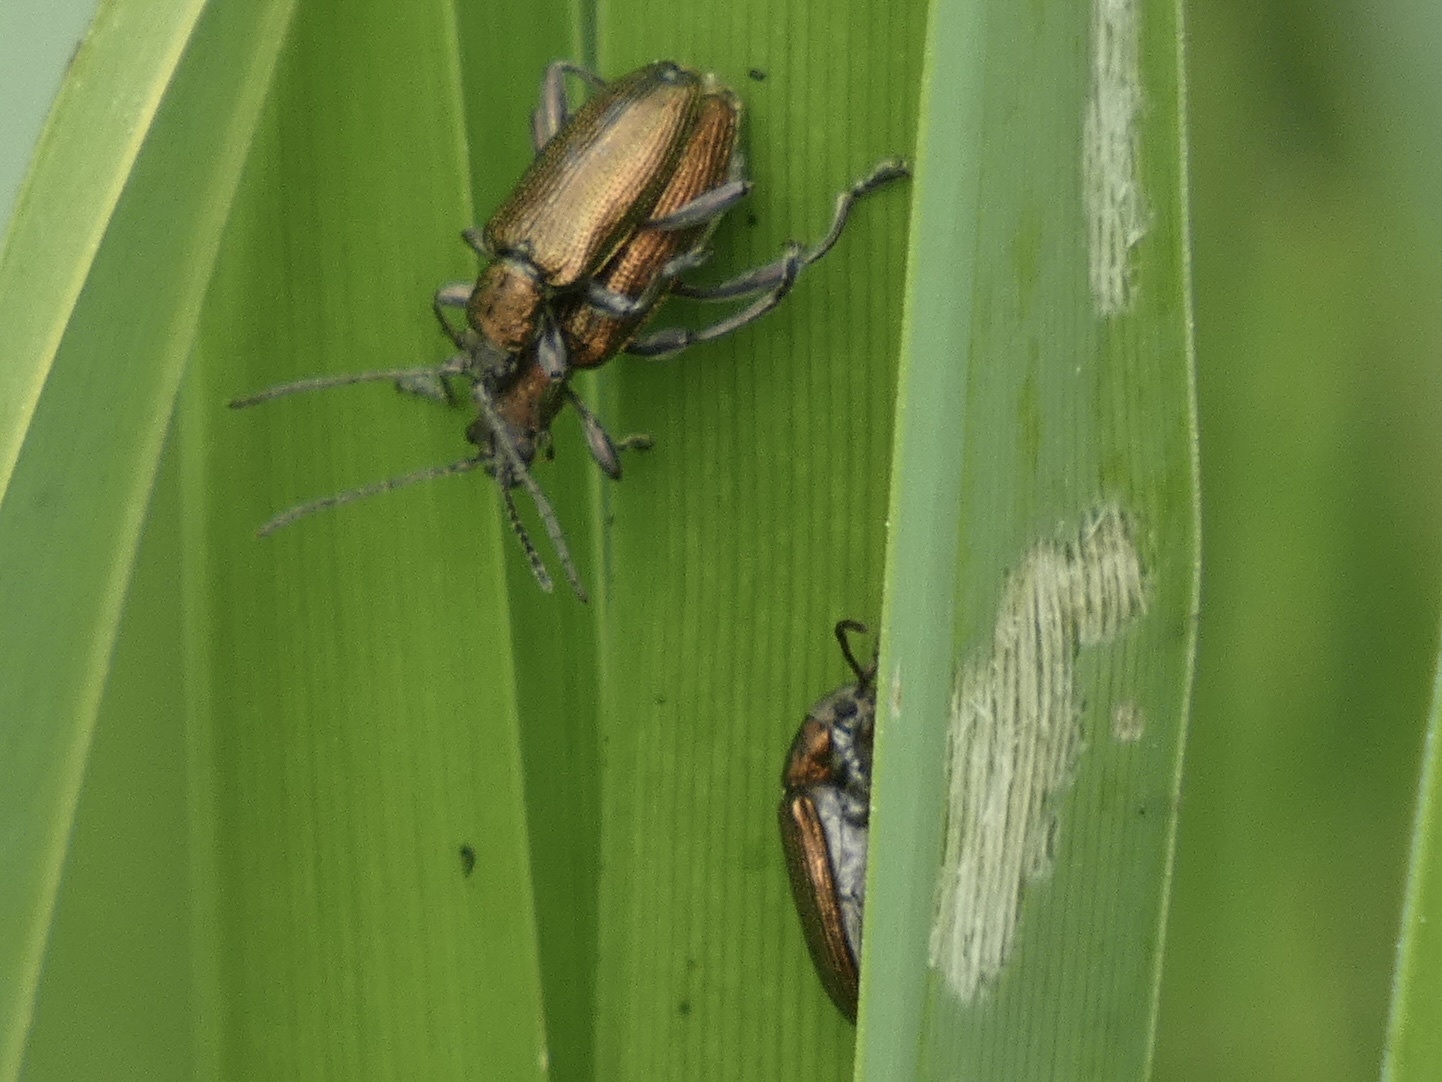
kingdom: Animalia
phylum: Arthropoda
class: Insecta
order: Coleoptera
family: Chrysomelidae
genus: Donacia
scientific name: Donacia semicuprea
